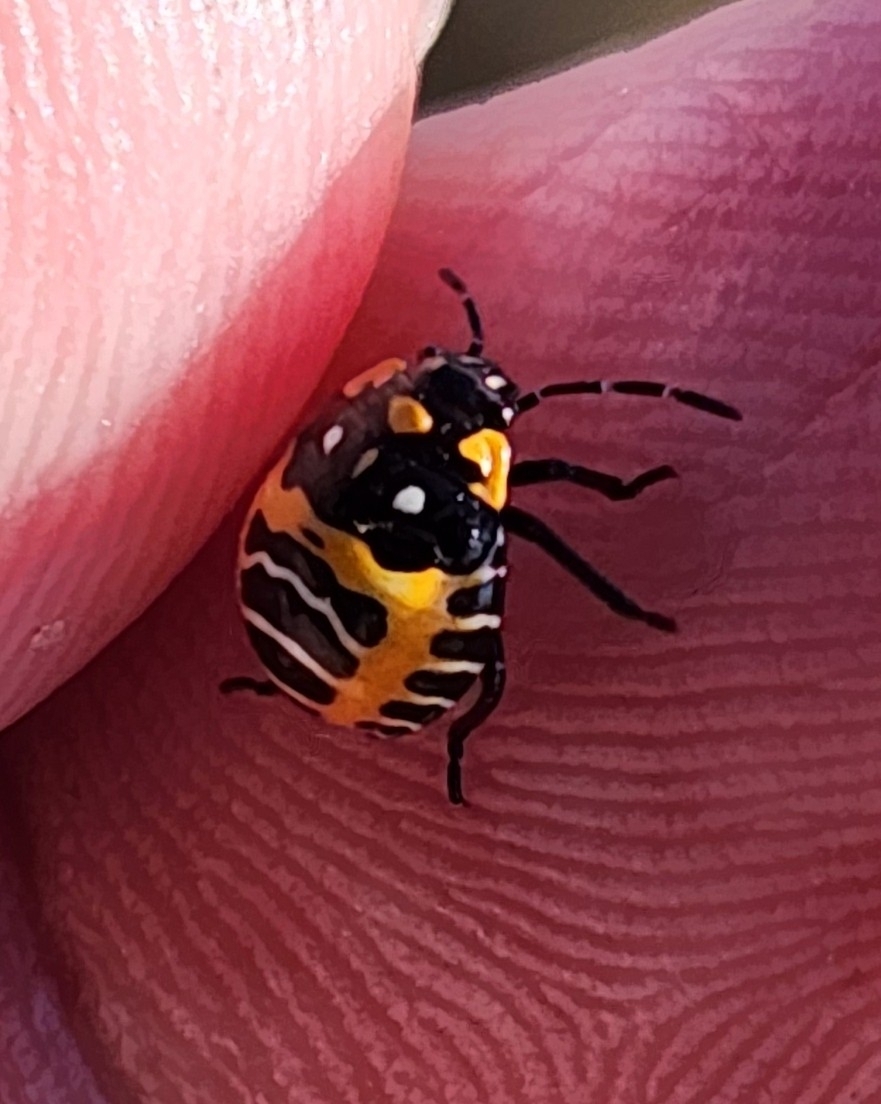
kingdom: Animalia
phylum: Arthropoda
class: Insecta
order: Hemiptera
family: Pentatomidae
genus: Murgantia
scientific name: Murgantia histrionica
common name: Harlequin bug
